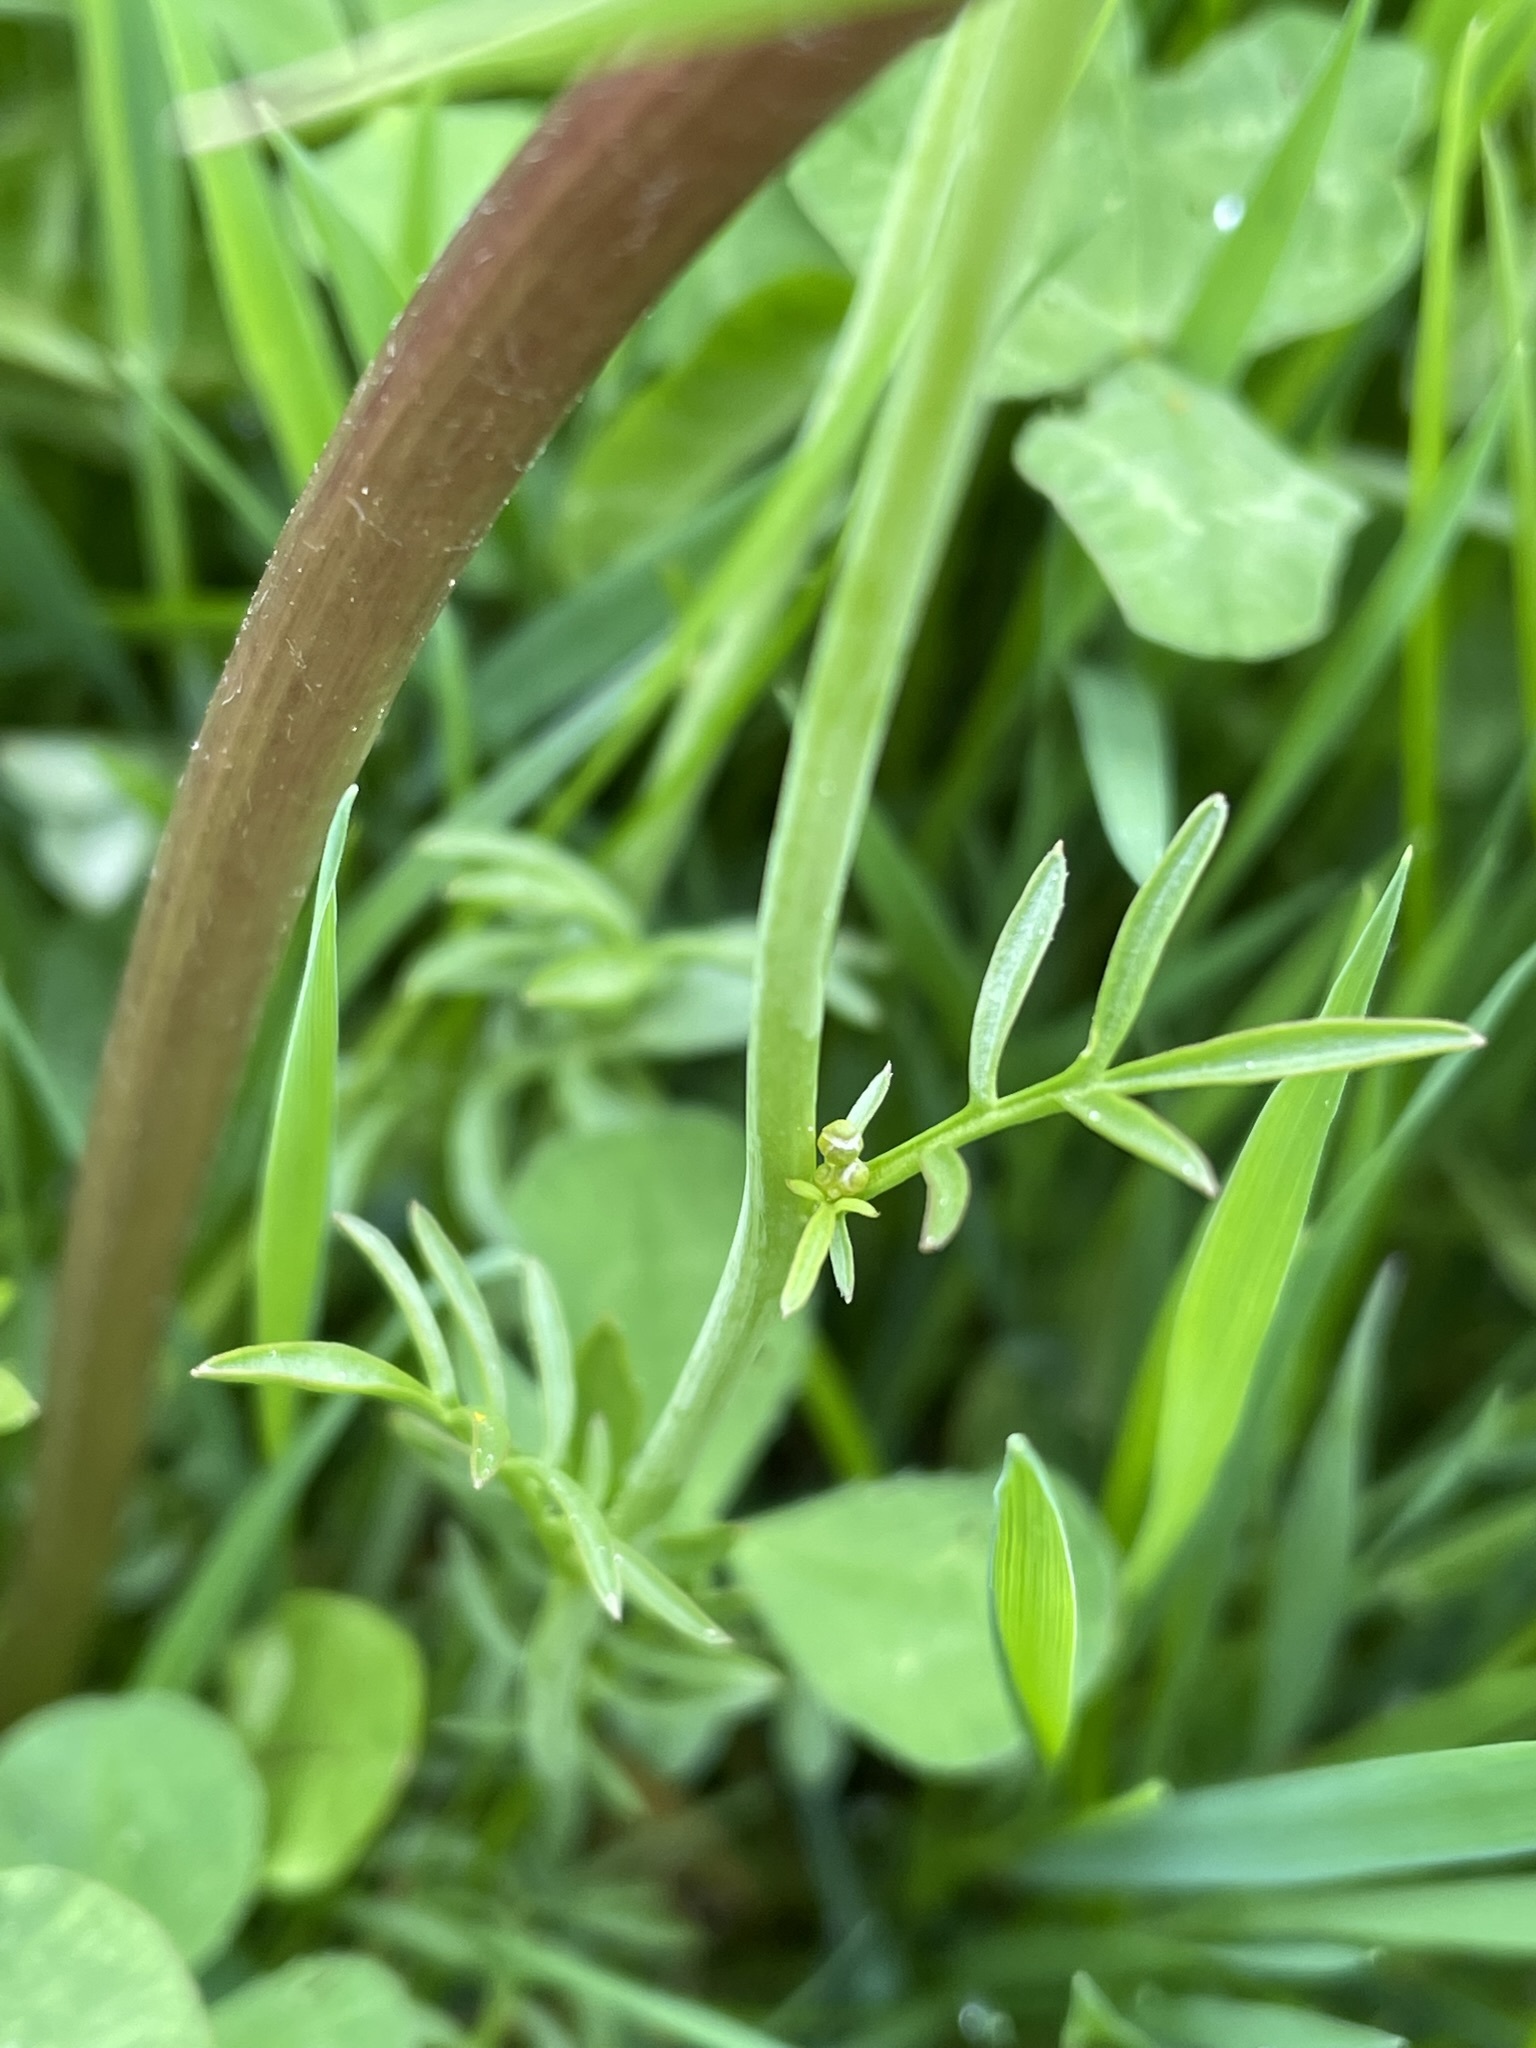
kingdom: Plantae
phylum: Tracheophyta
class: Magnoliopsida
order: Brassicales
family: Brassicaceae
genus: Cardamine
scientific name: Cardamine pratensis
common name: Cuckoo flower
